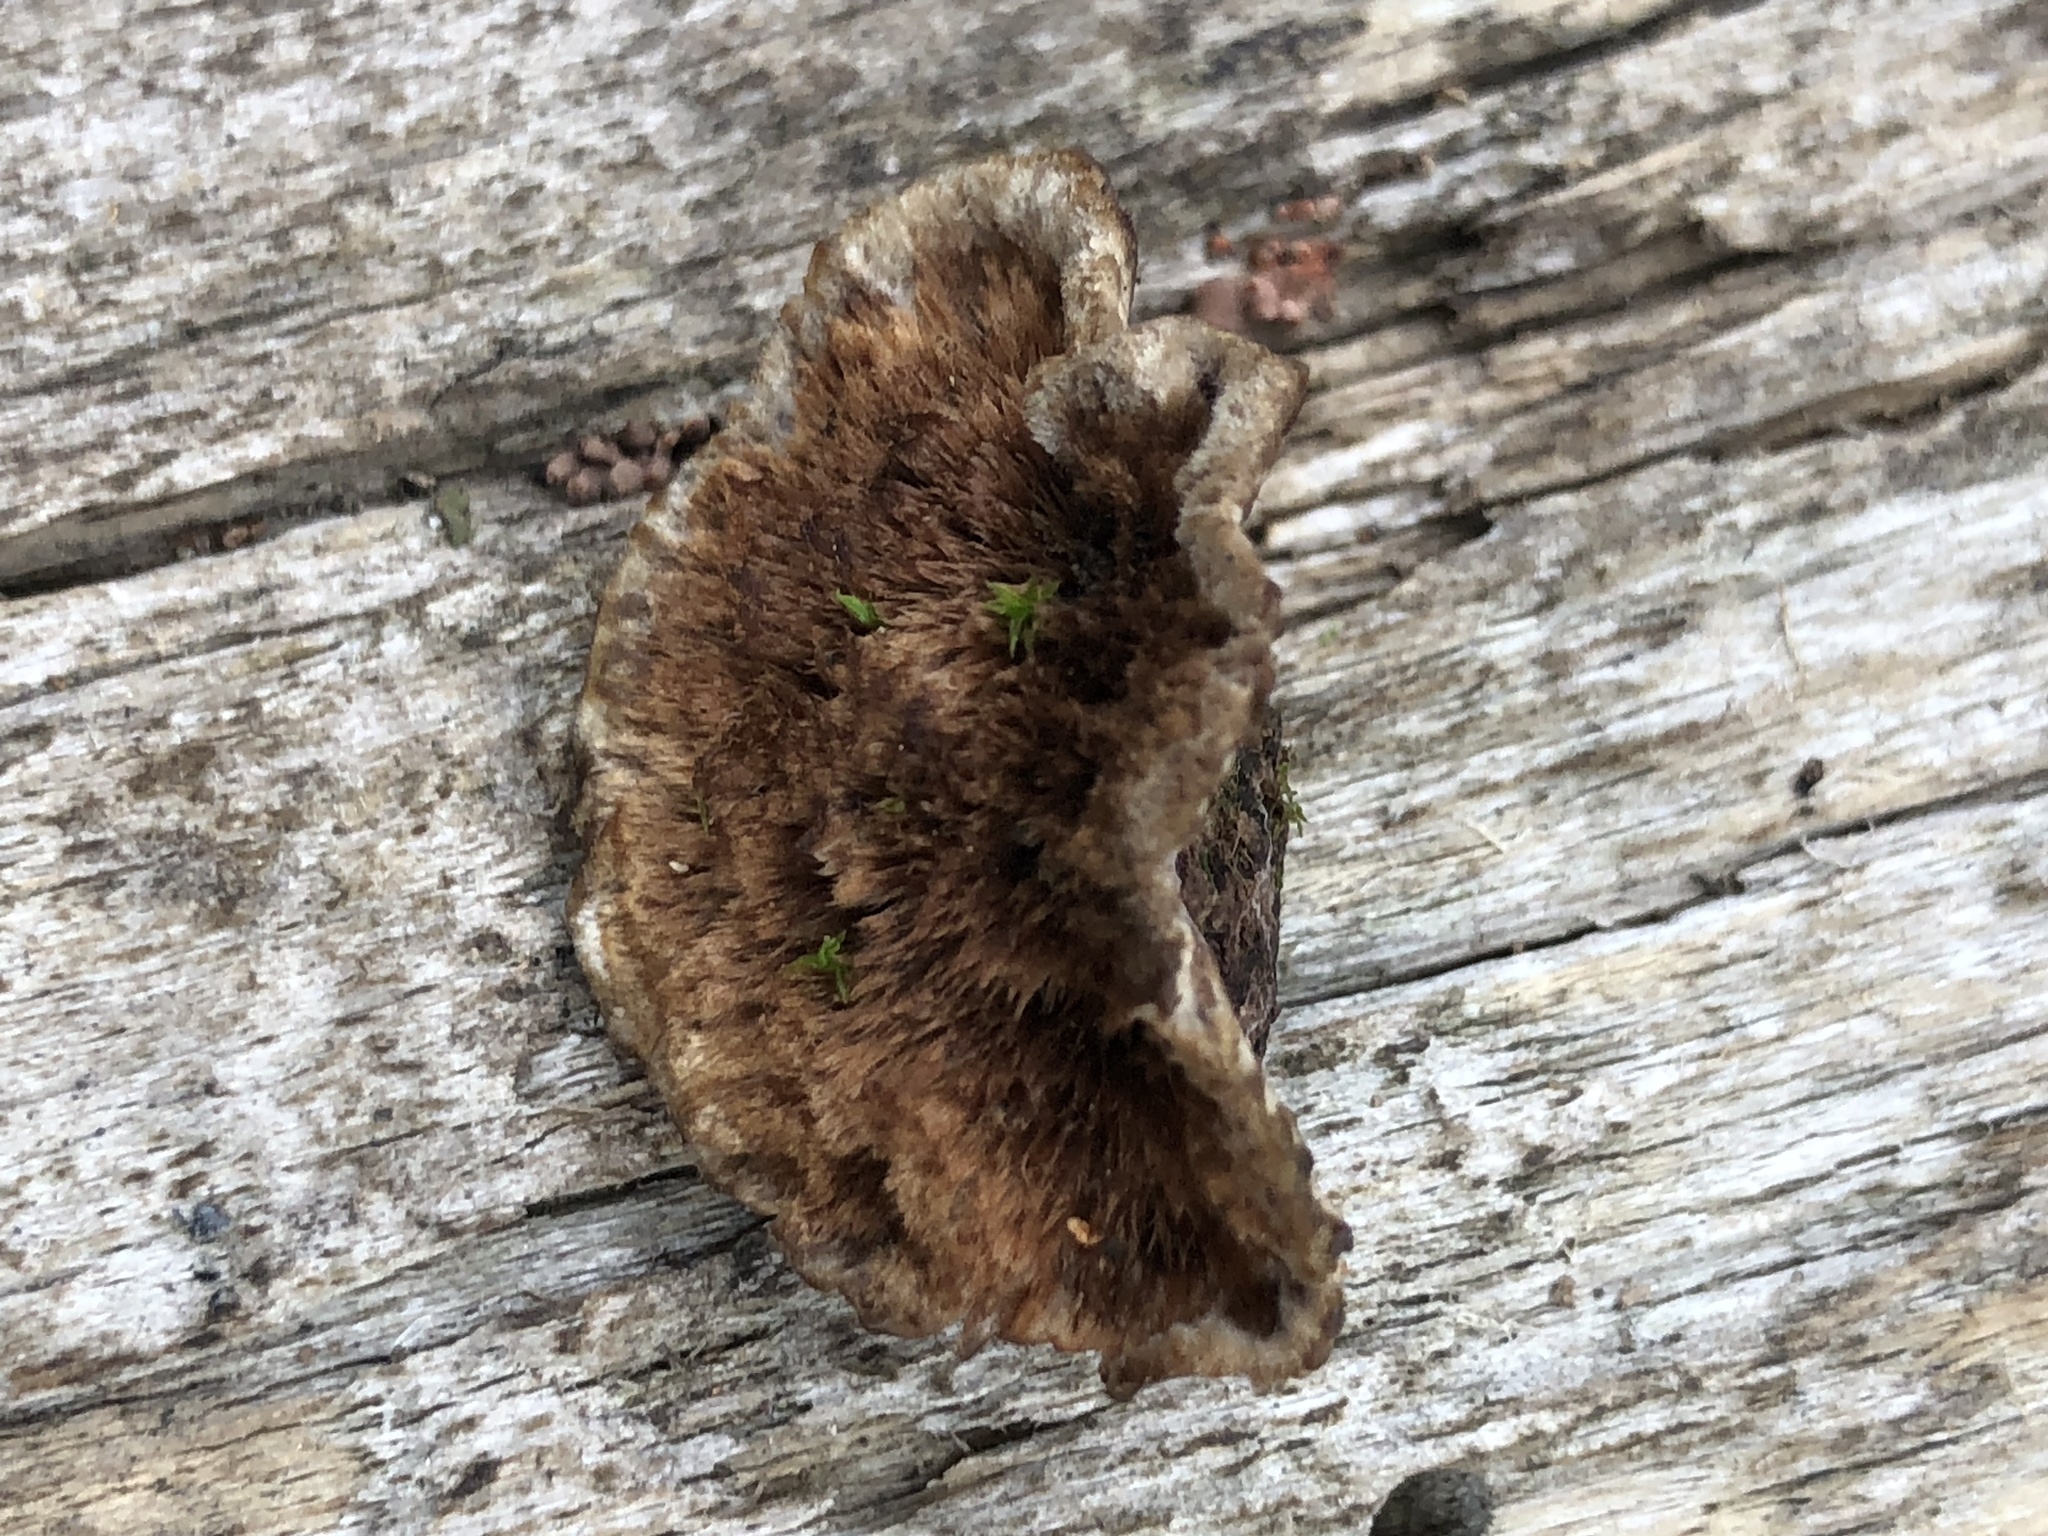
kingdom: Fungi
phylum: Basidiomycota
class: Agaricomycetes
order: Thelephorales
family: Thelephoraceae
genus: Thelephora
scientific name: Thelephora terrestris
